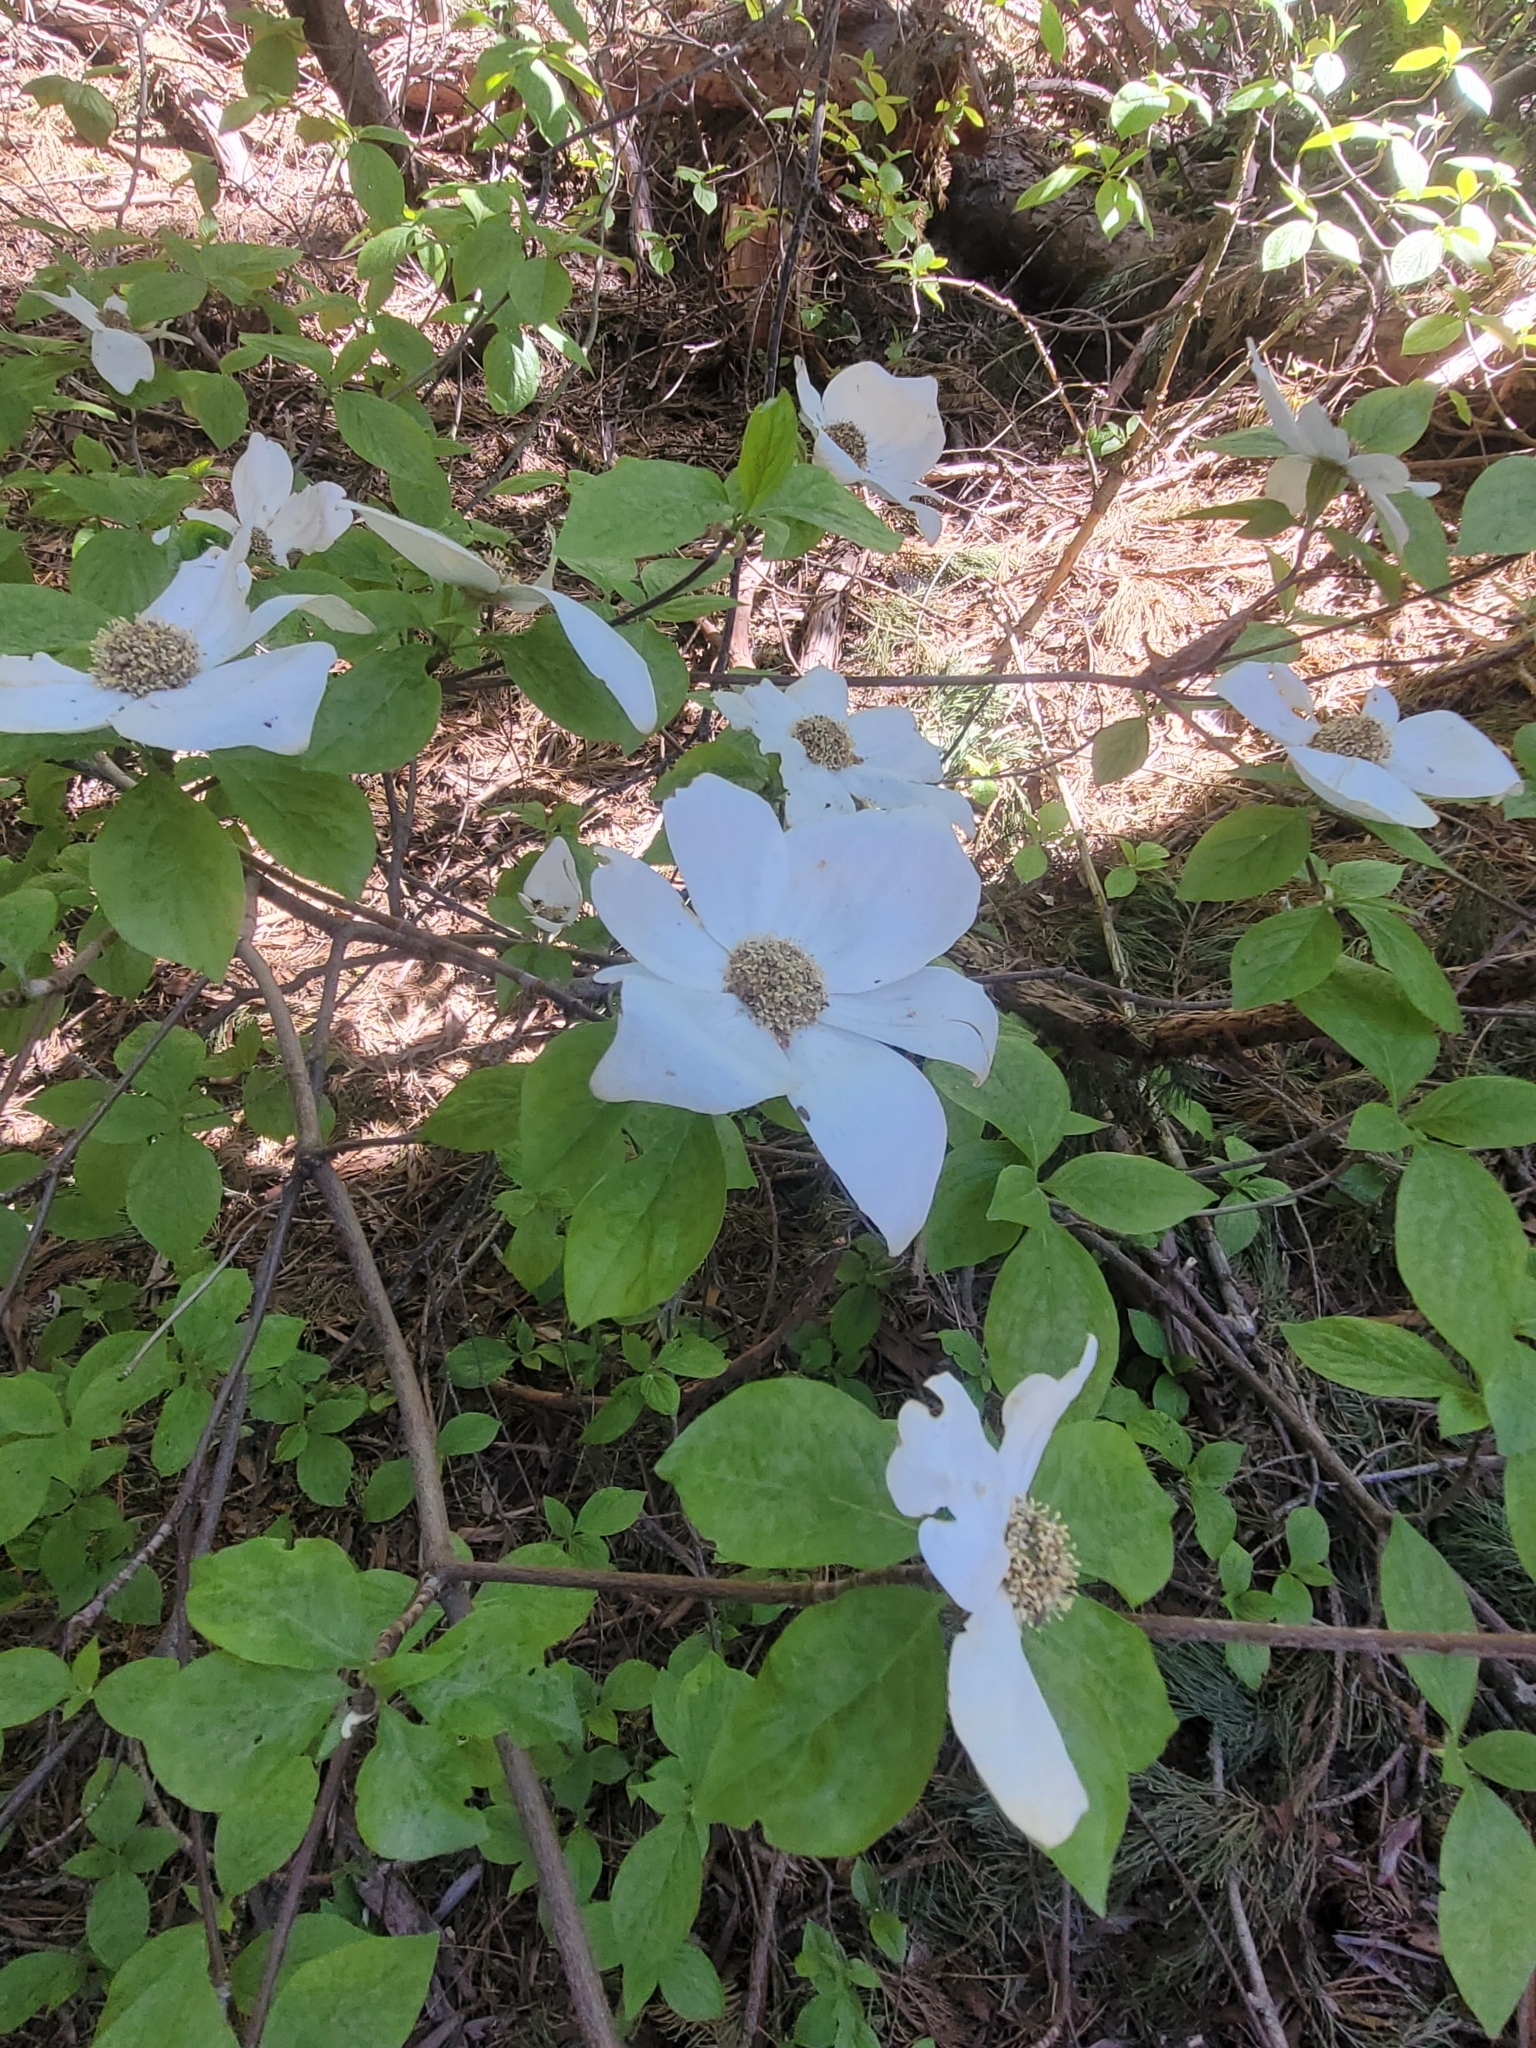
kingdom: Plantae
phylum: Tracheophyta
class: Magnoliopsida
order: Cornales
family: Cornaceae
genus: Cornus
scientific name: Cornus nuttallii
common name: Pacific dogwood
